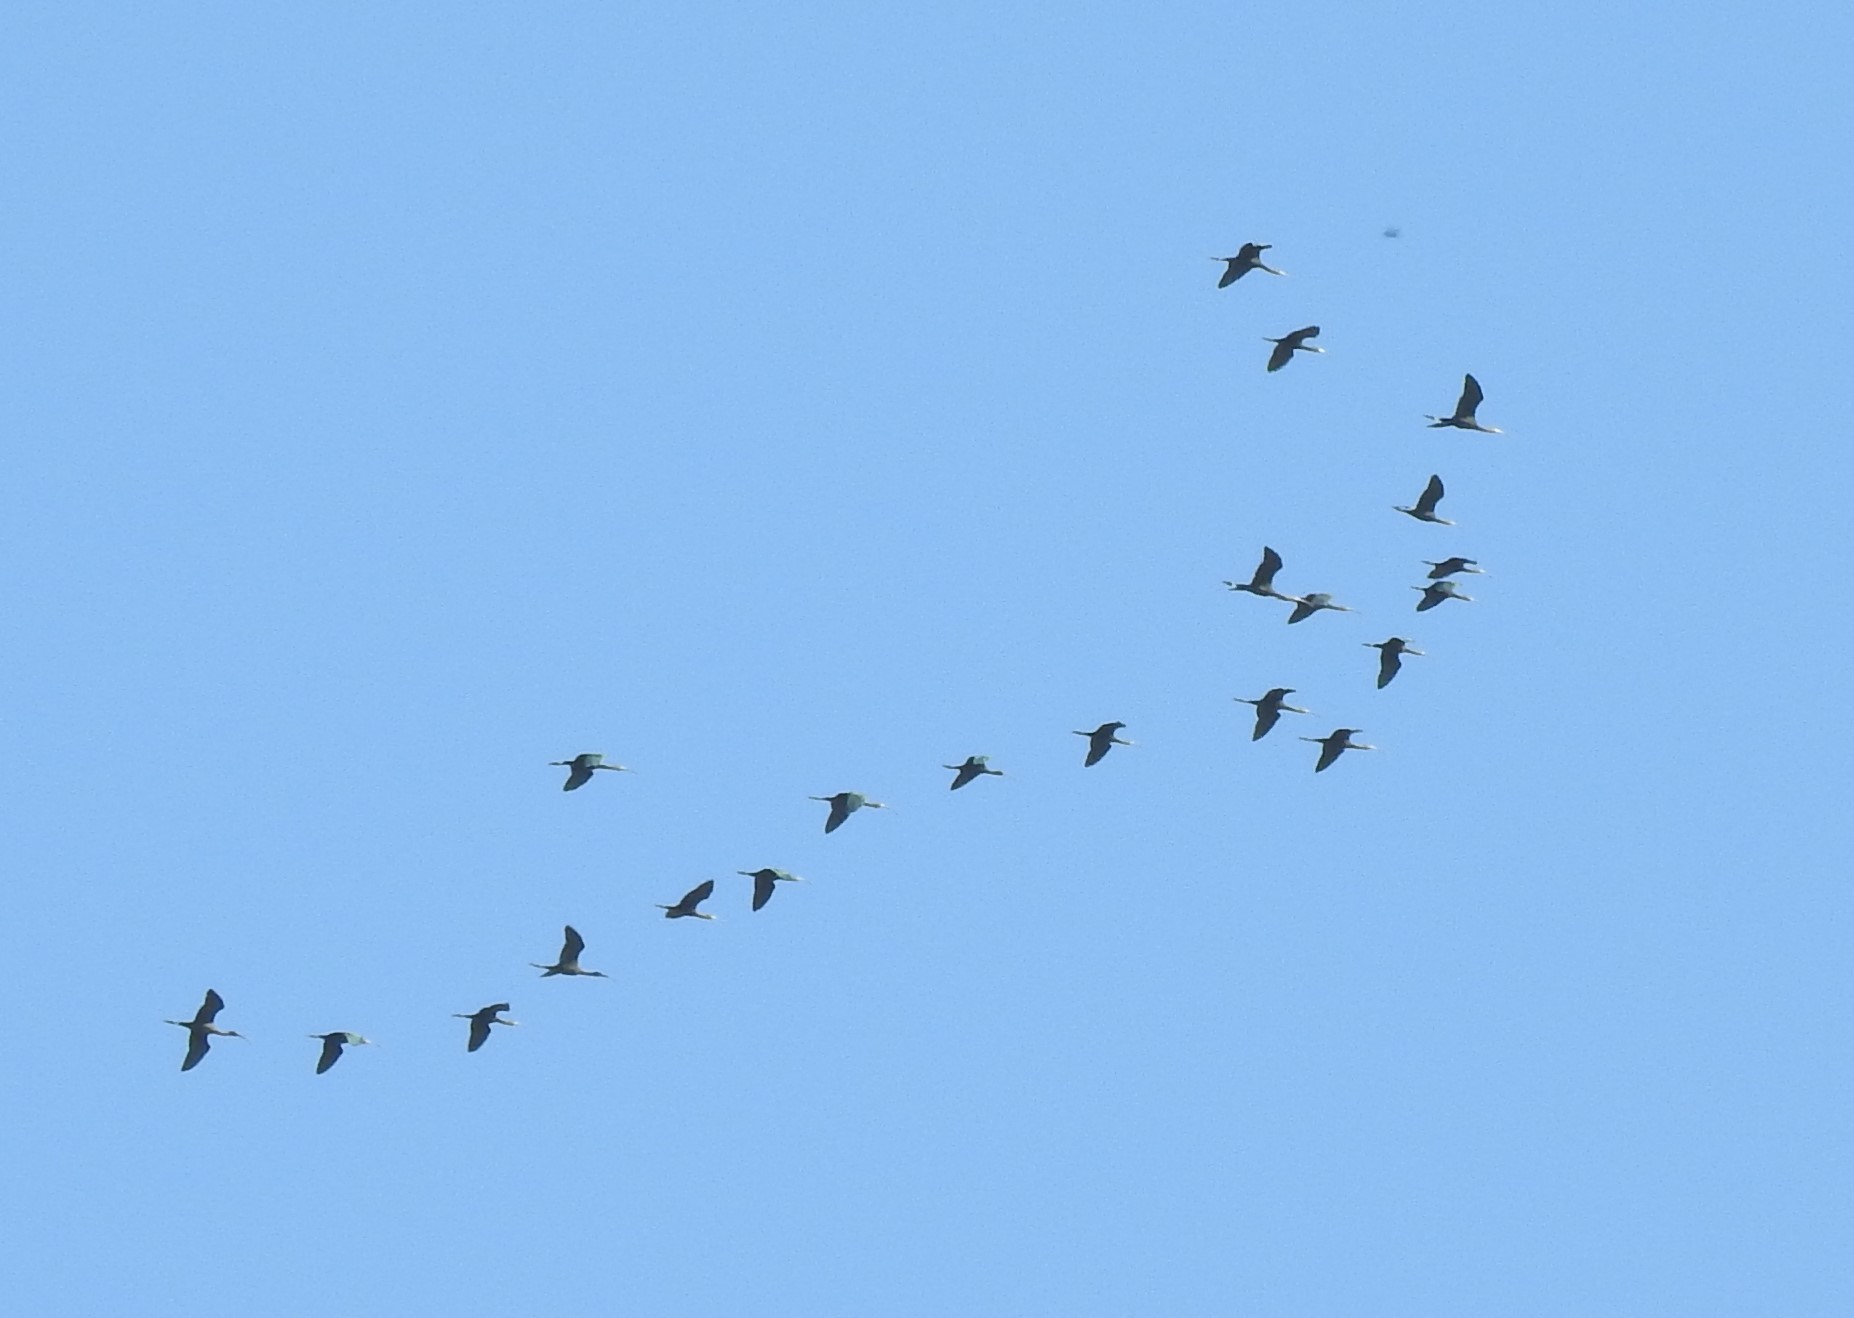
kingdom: Animalia
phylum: Chordata
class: Aves
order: Pelecaniformes
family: Threskiornithidae
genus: Plegadis
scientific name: Plegadis chihi
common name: White-faced ibis
